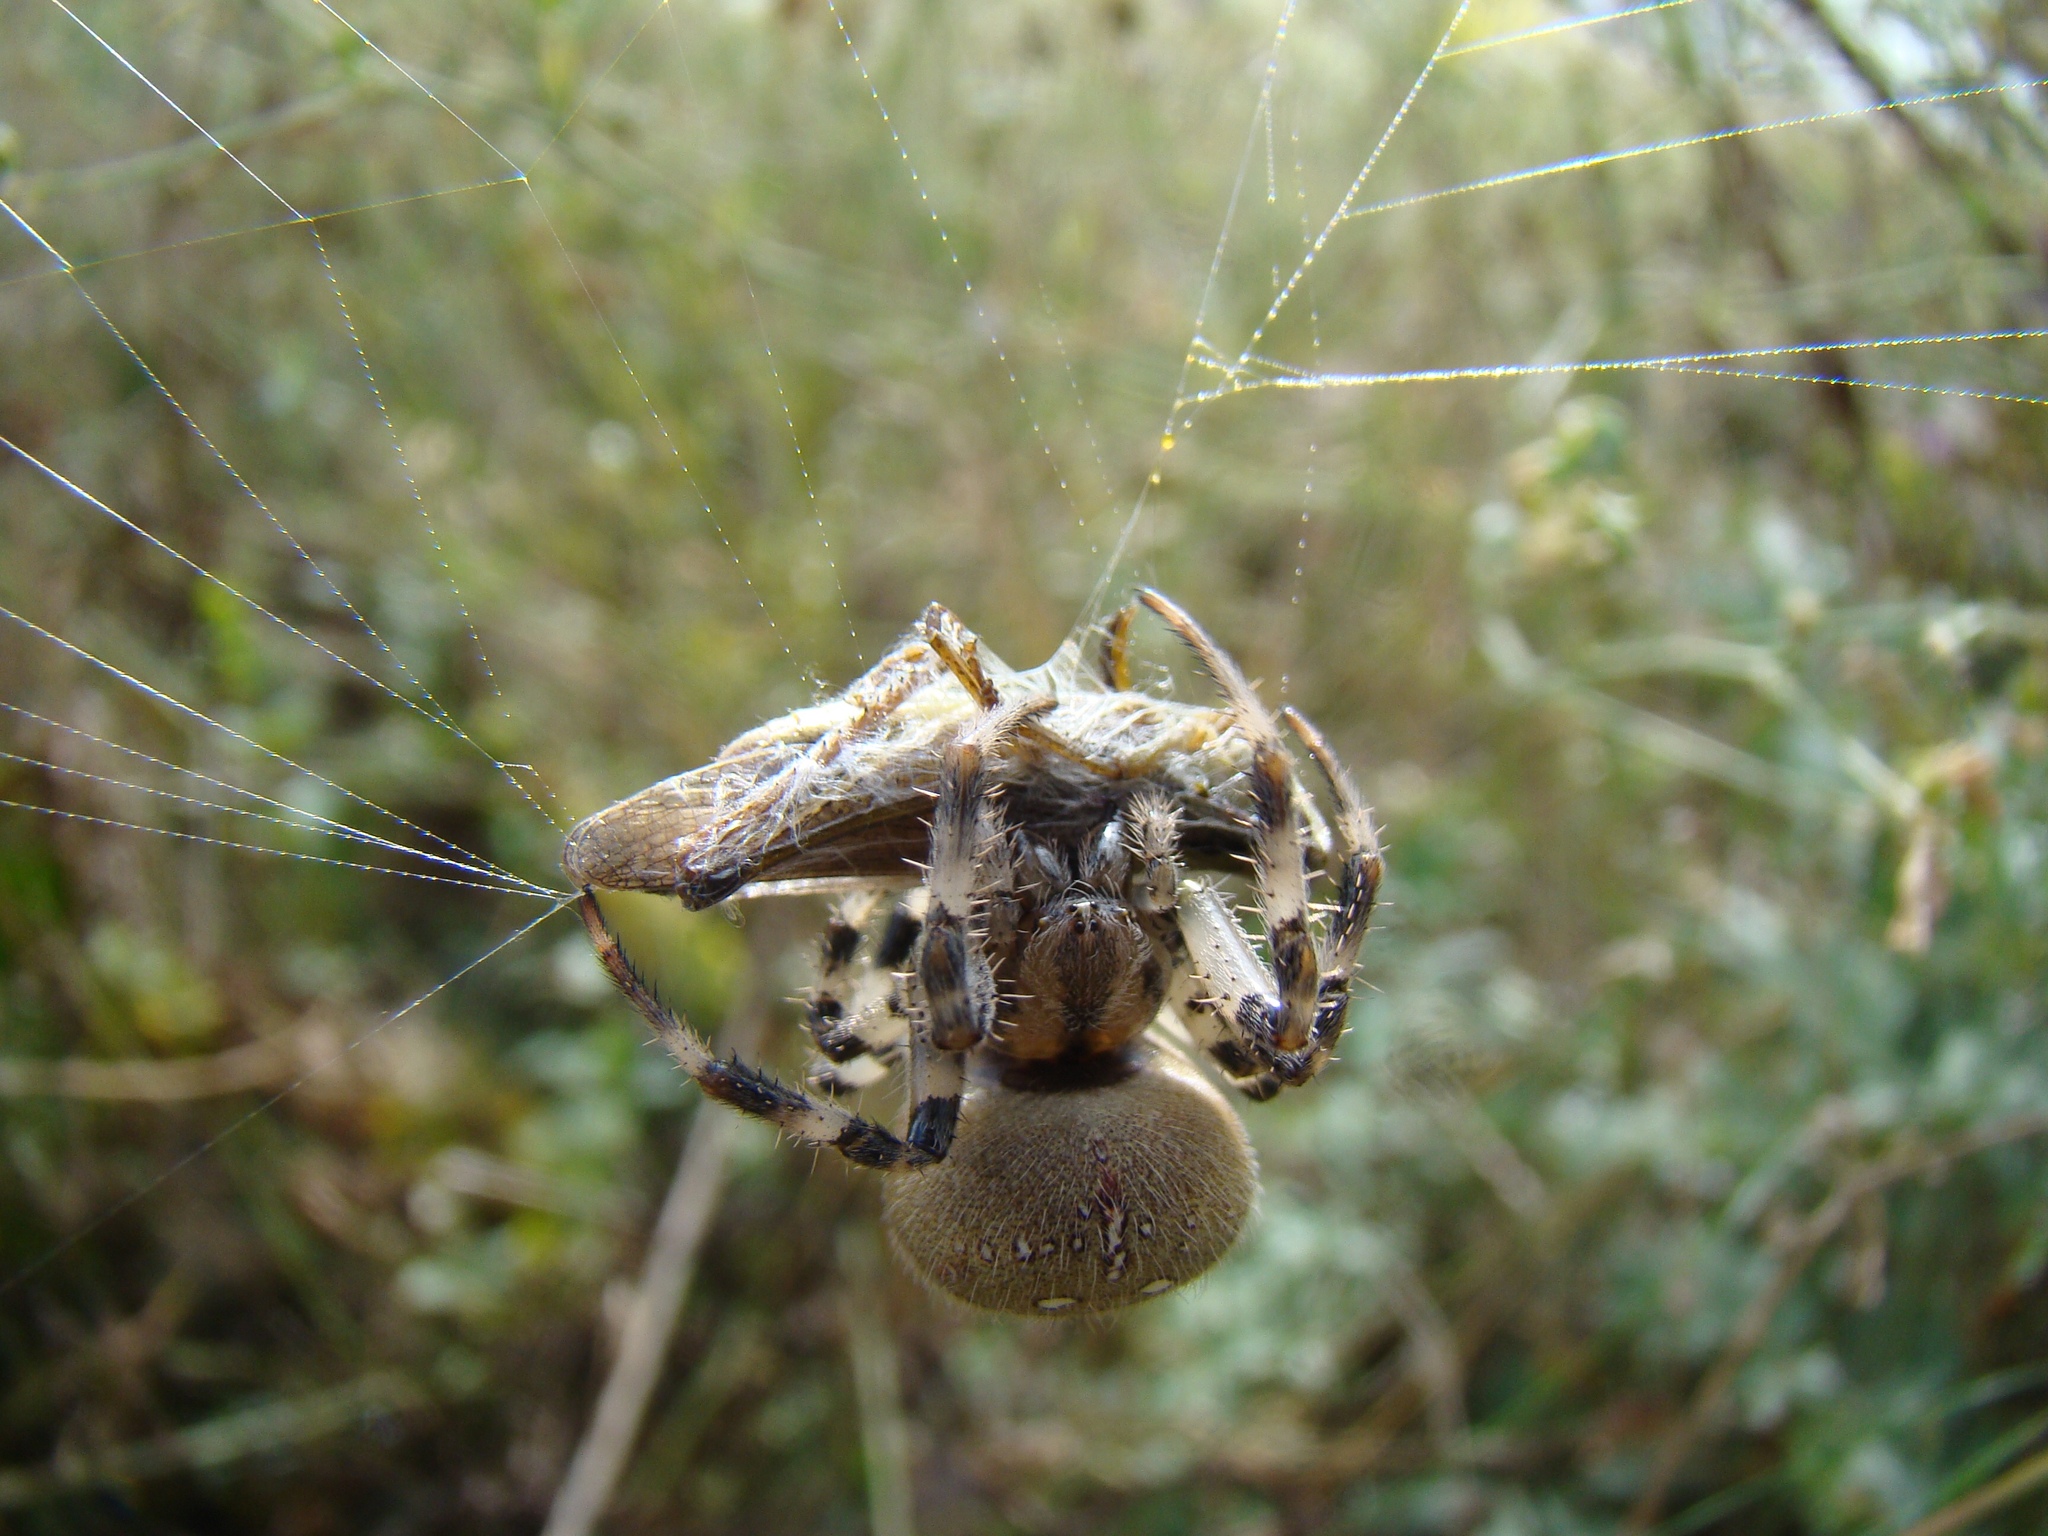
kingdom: Animalia
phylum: Arthropoda
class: Arachnida
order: Araneae
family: Araneidae
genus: Araneus
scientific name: Araneus quadratus
